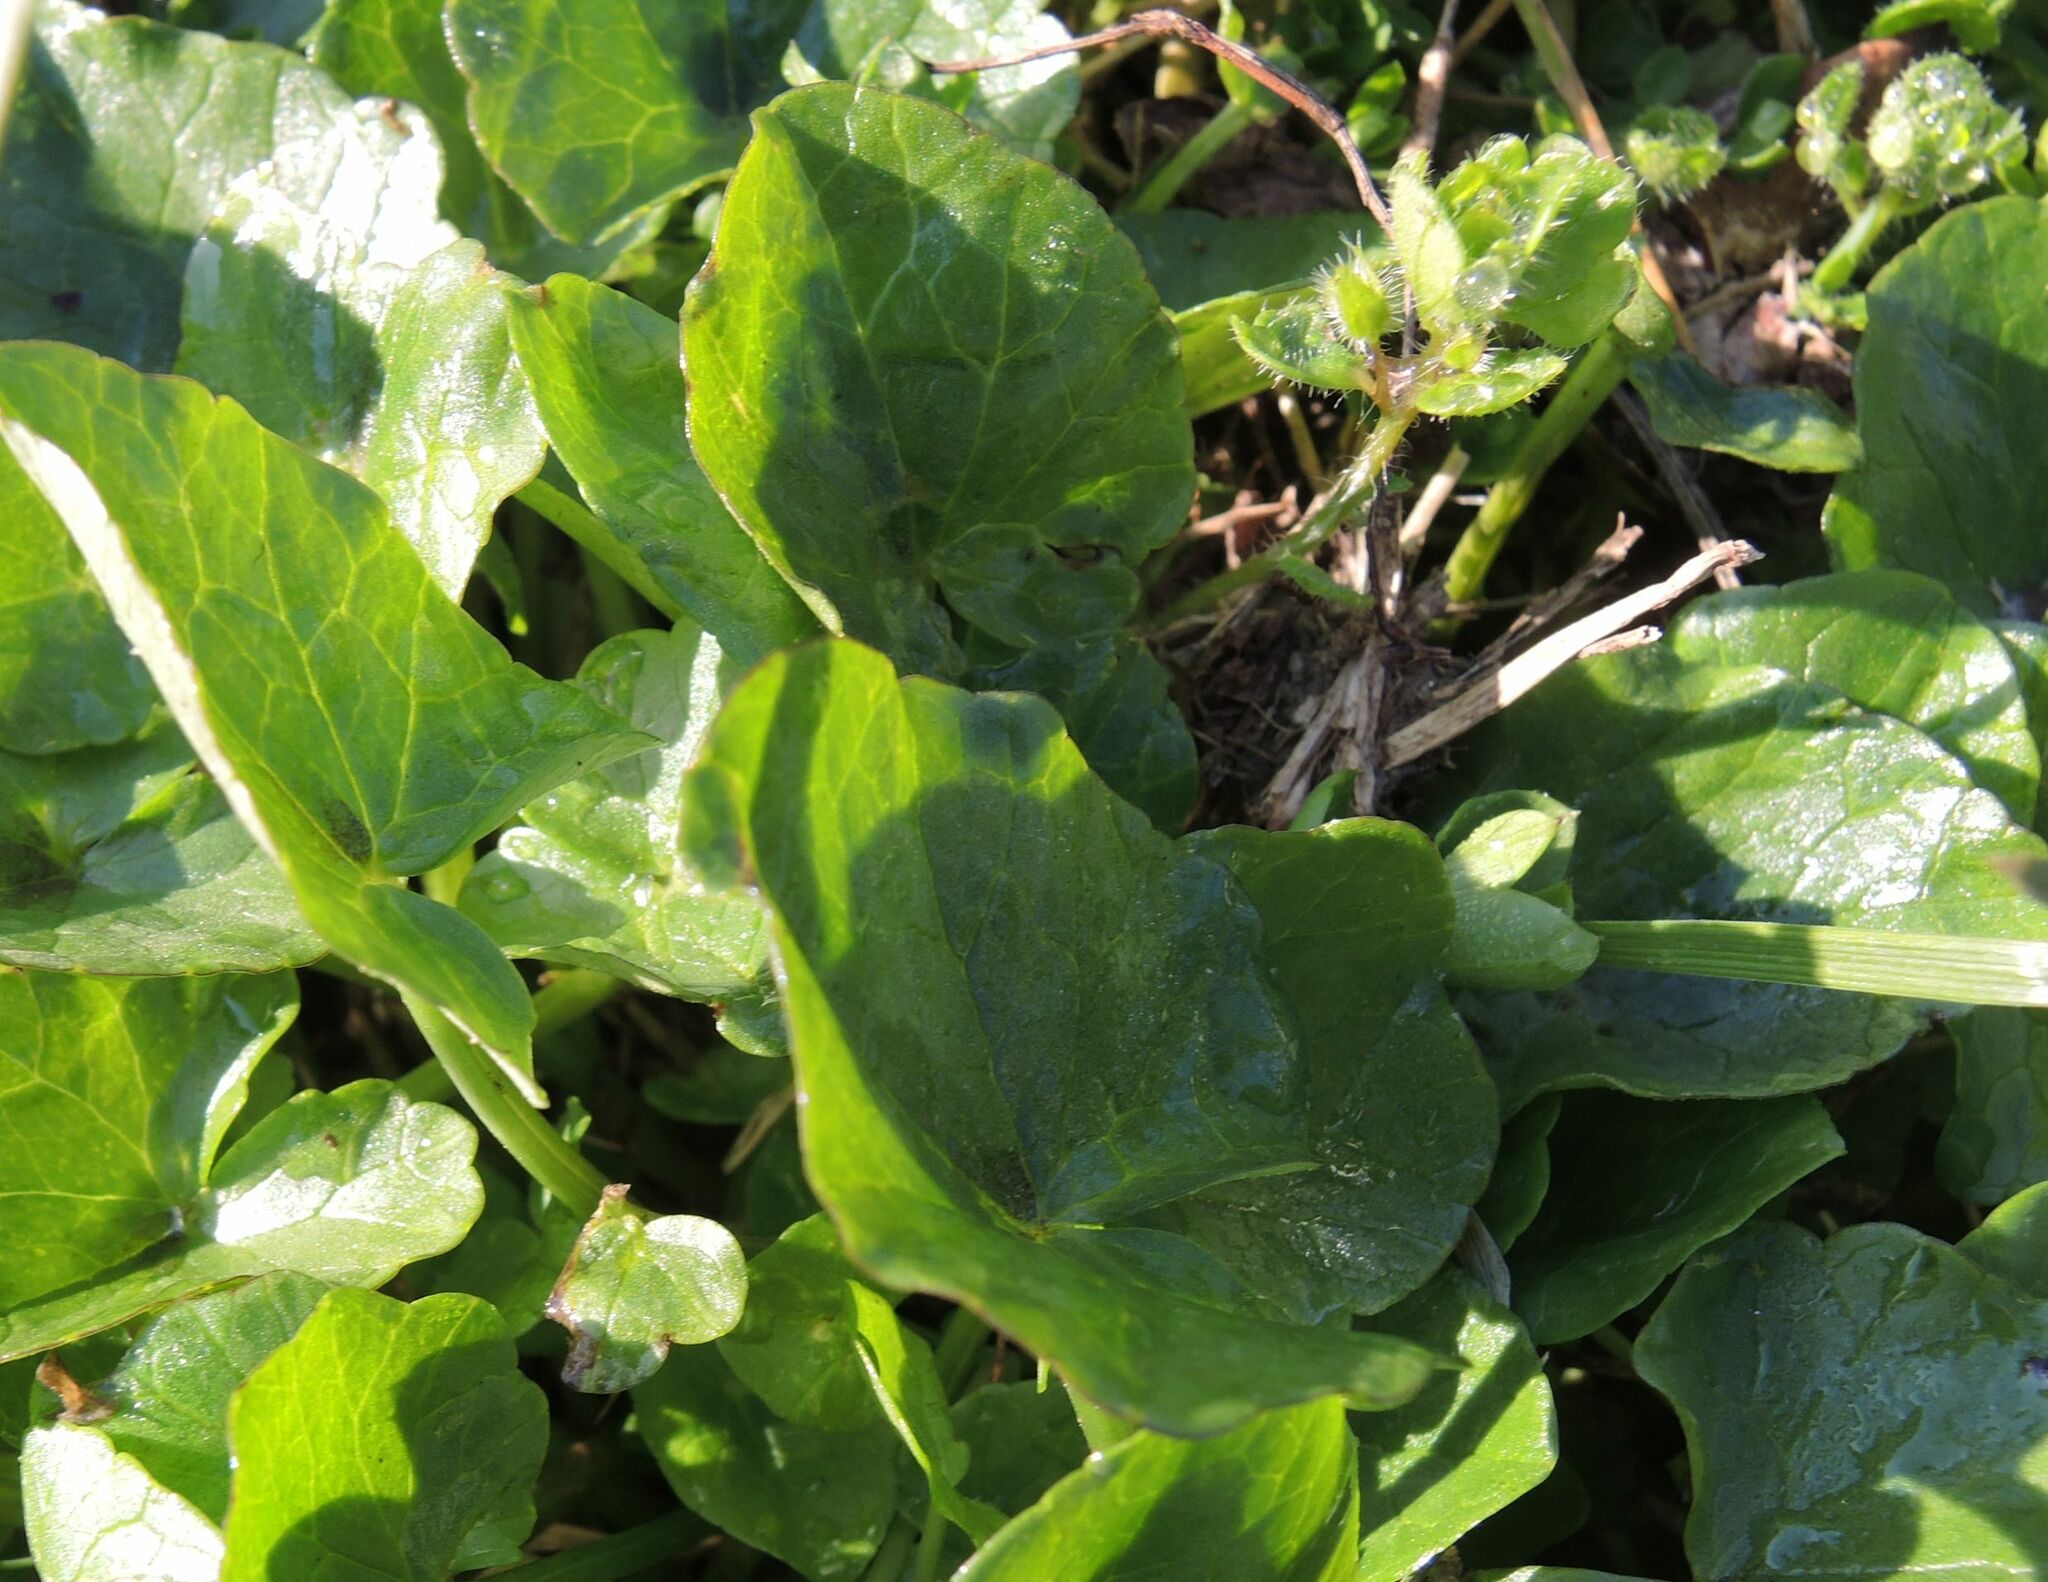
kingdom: Plantae
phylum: Tracheophyta
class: Magnoliopsida
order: Ranunculales
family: Ranunculaceae
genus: Ficaria
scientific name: Ficaria verna
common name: Lesser celandine
